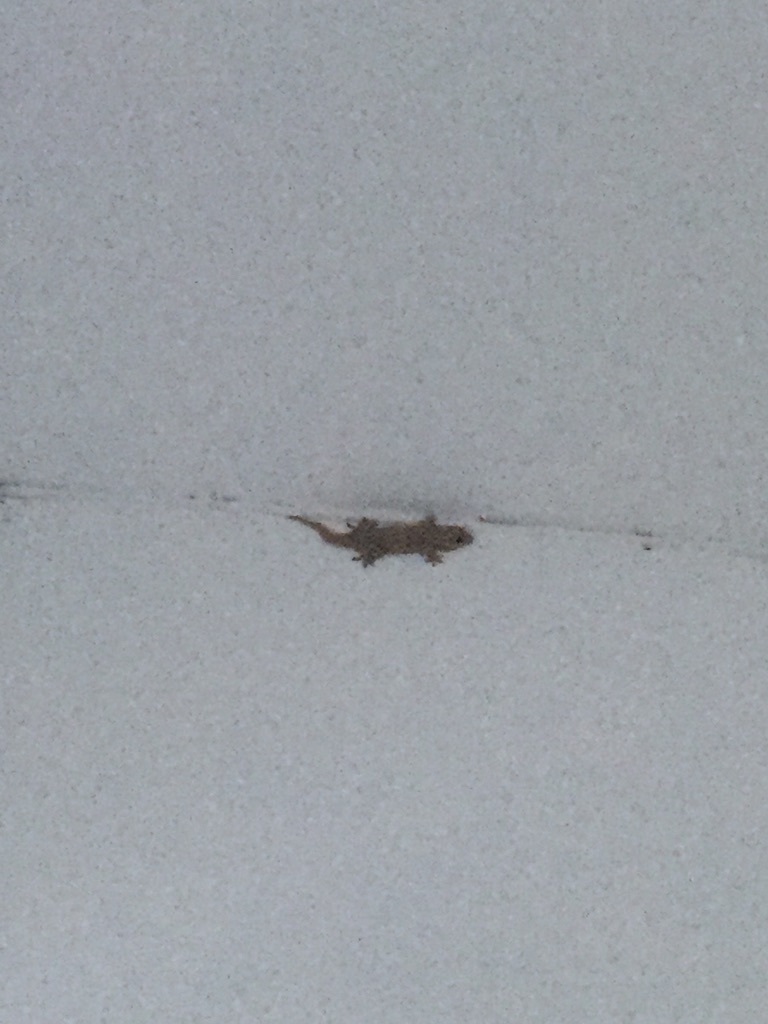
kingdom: Animalia
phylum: Chordata
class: Squamata
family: Phyllodactylidae
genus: Tarentola
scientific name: Tarentola mauritanica
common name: Moorish gecko
